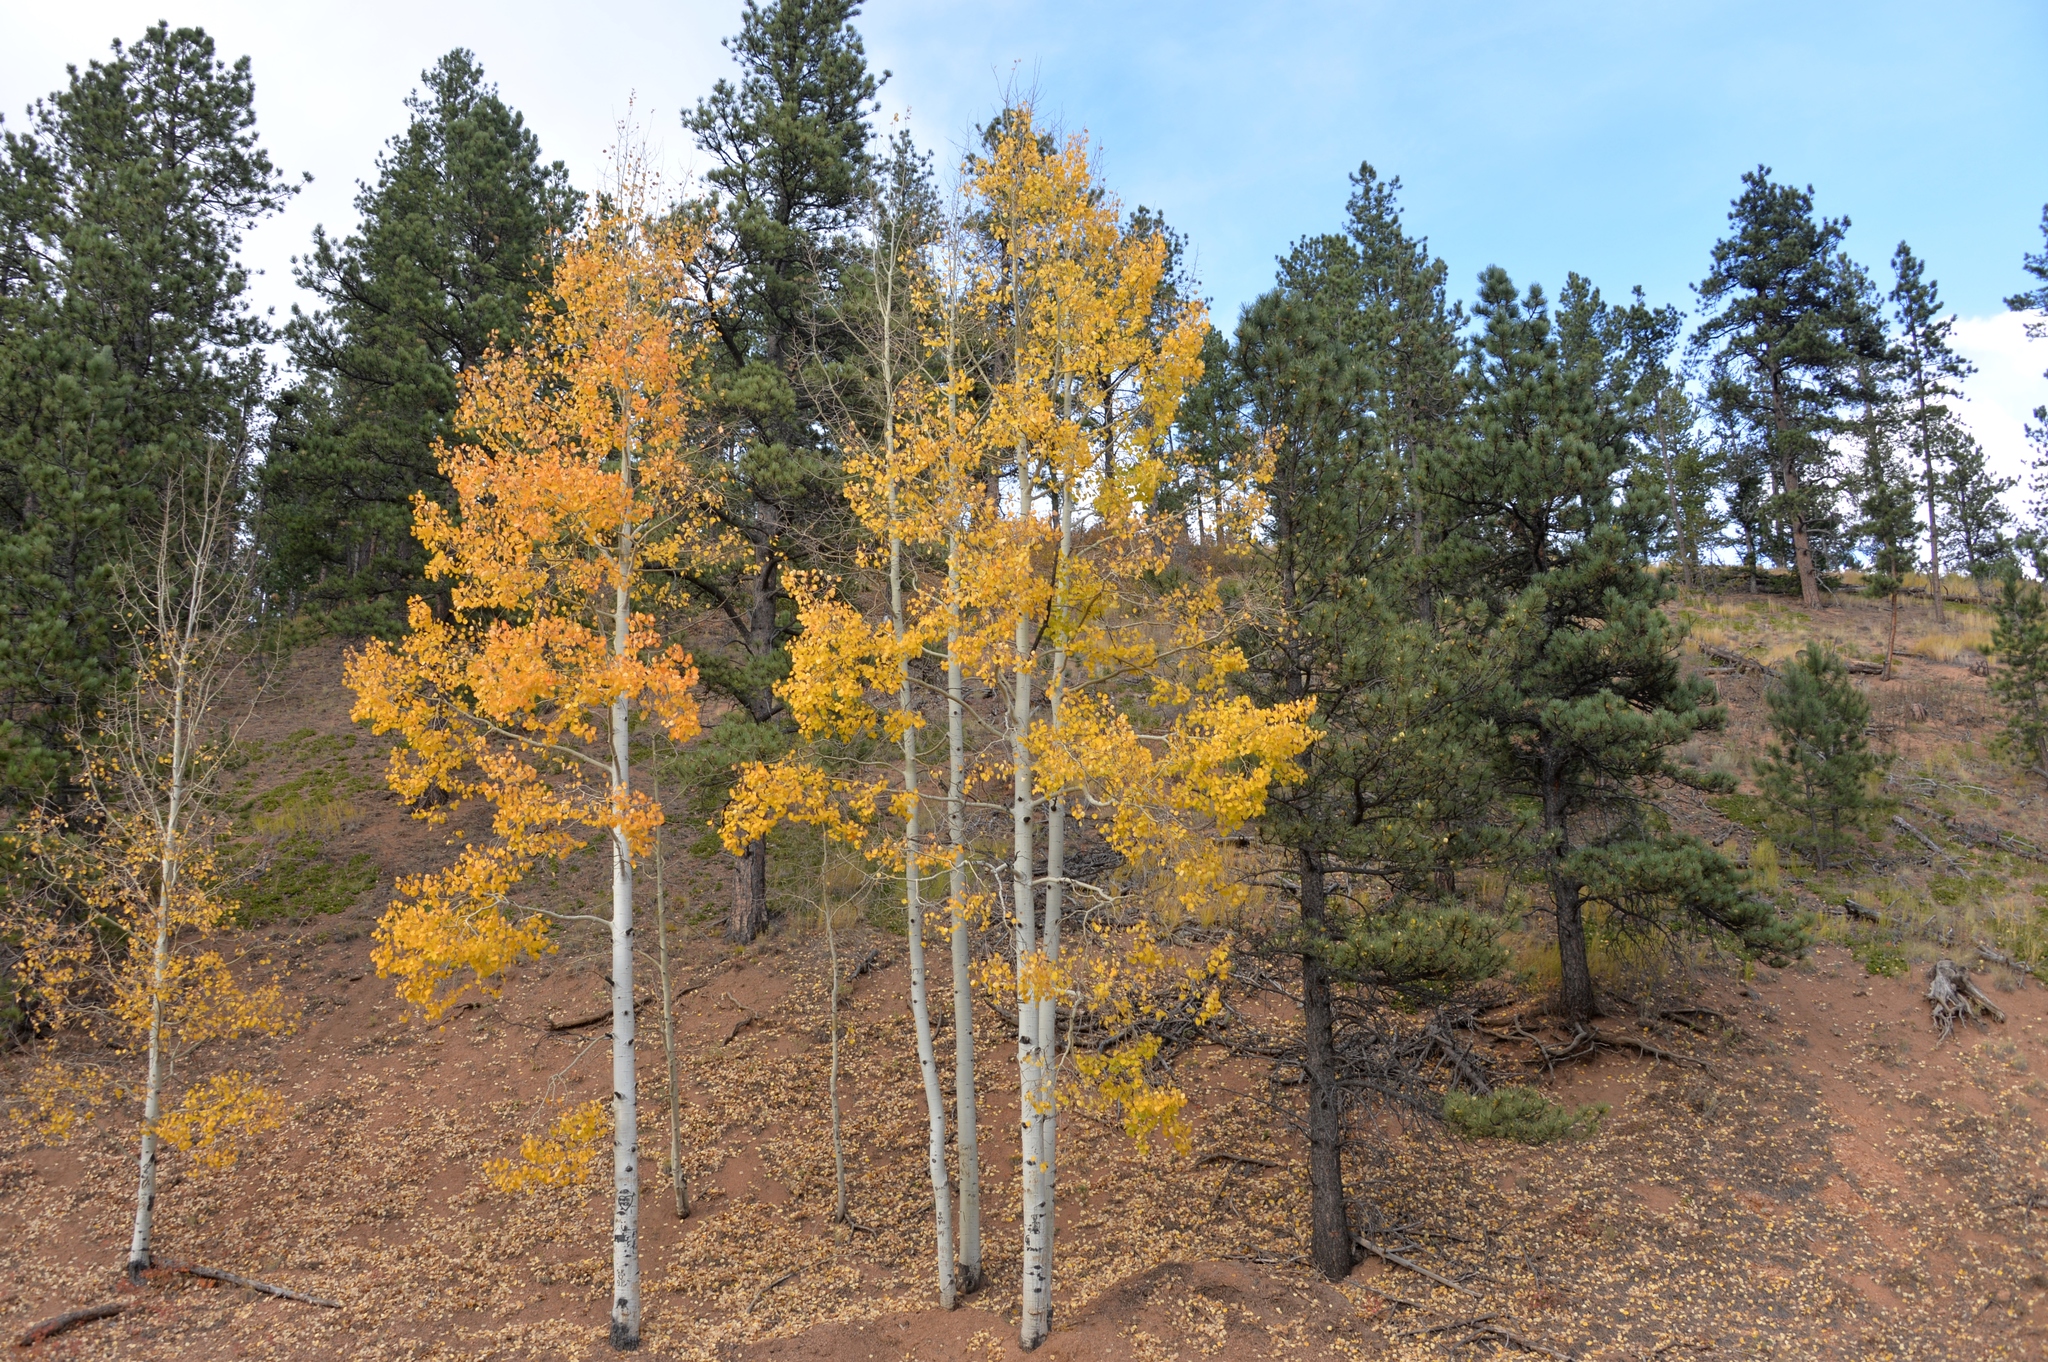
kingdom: Plantae
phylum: Tracheophyta
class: Magnoliopsida
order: Malpighiales
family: Salicaceae
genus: Populus
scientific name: Populus tremuloides
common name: Quaking aspen
